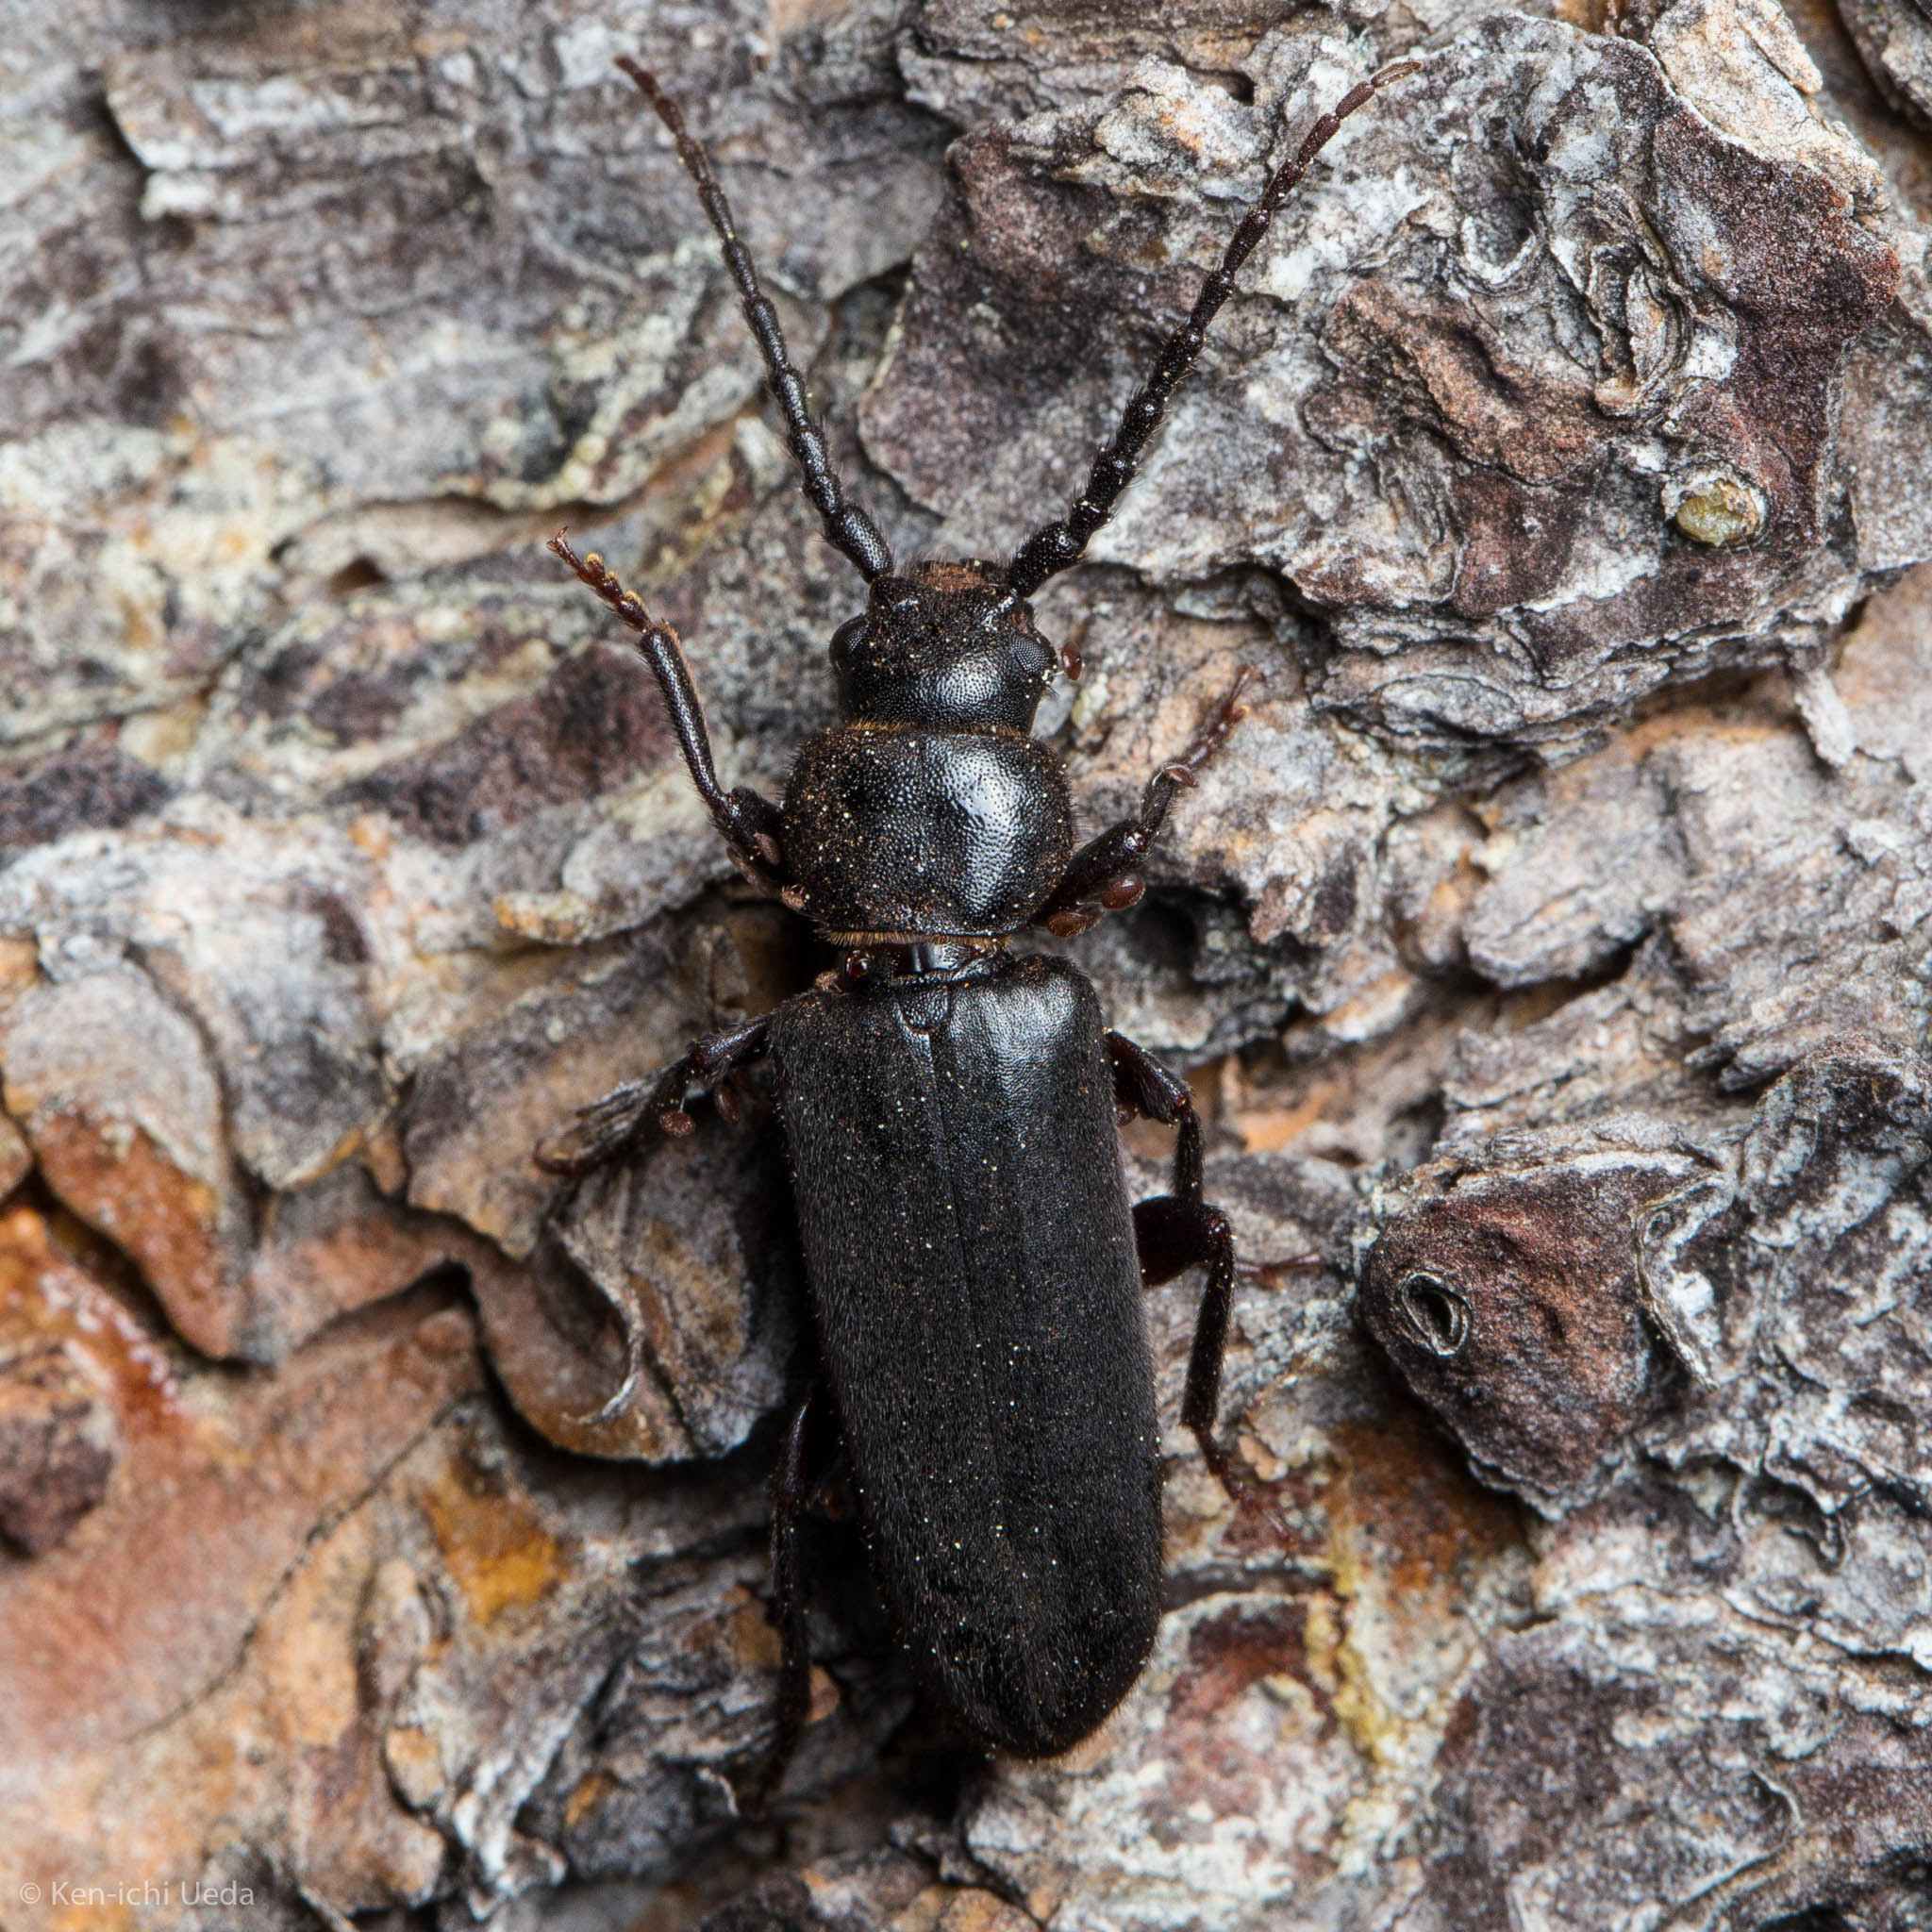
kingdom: Animalia
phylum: Arthropoda
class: Insecta
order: Coleoptera
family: Cerambycidae
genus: Asemum
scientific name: Asemum nitidum
